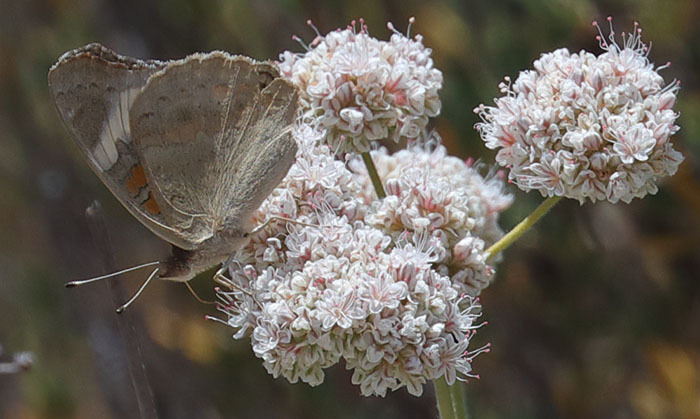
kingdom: Animalia
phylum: Arthropoda
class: Insecta
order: Lepidoptera
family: Nymphalidae
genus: Junonia
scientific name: Junonia grisea
